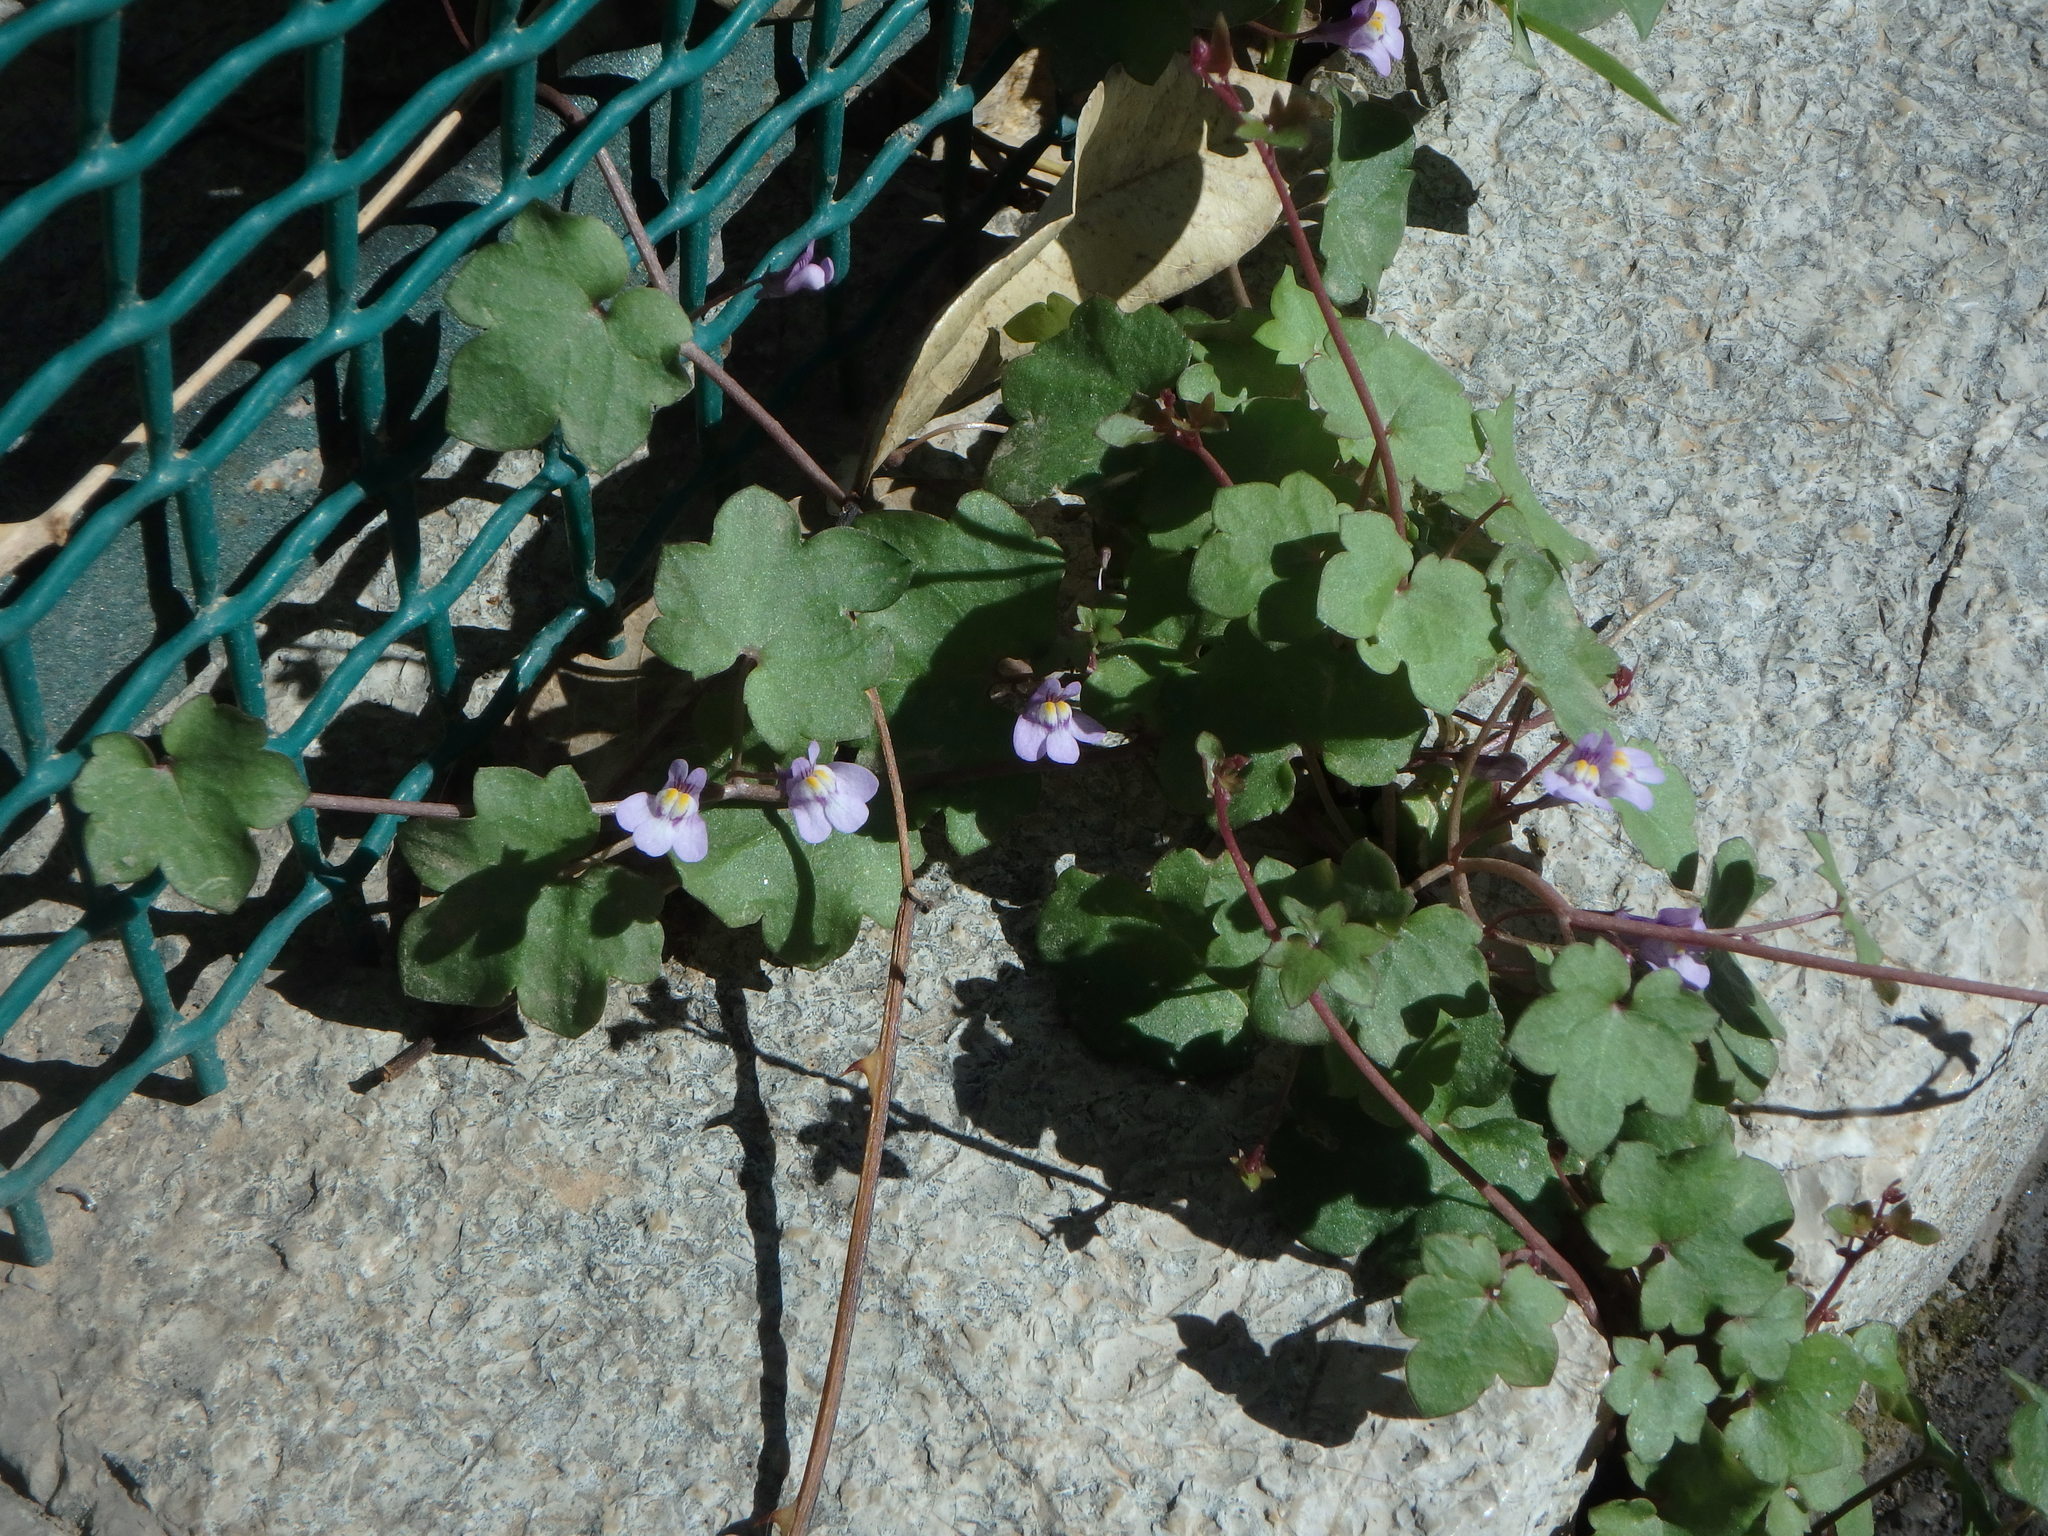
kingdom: Plantae
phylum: Tracheophyta
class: Magnoliopsida
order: Lamiales
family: Plantaginaceae
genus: Cymbalaria
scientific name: Cymbalaria muralis
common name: Ivy-leaved toadflax
